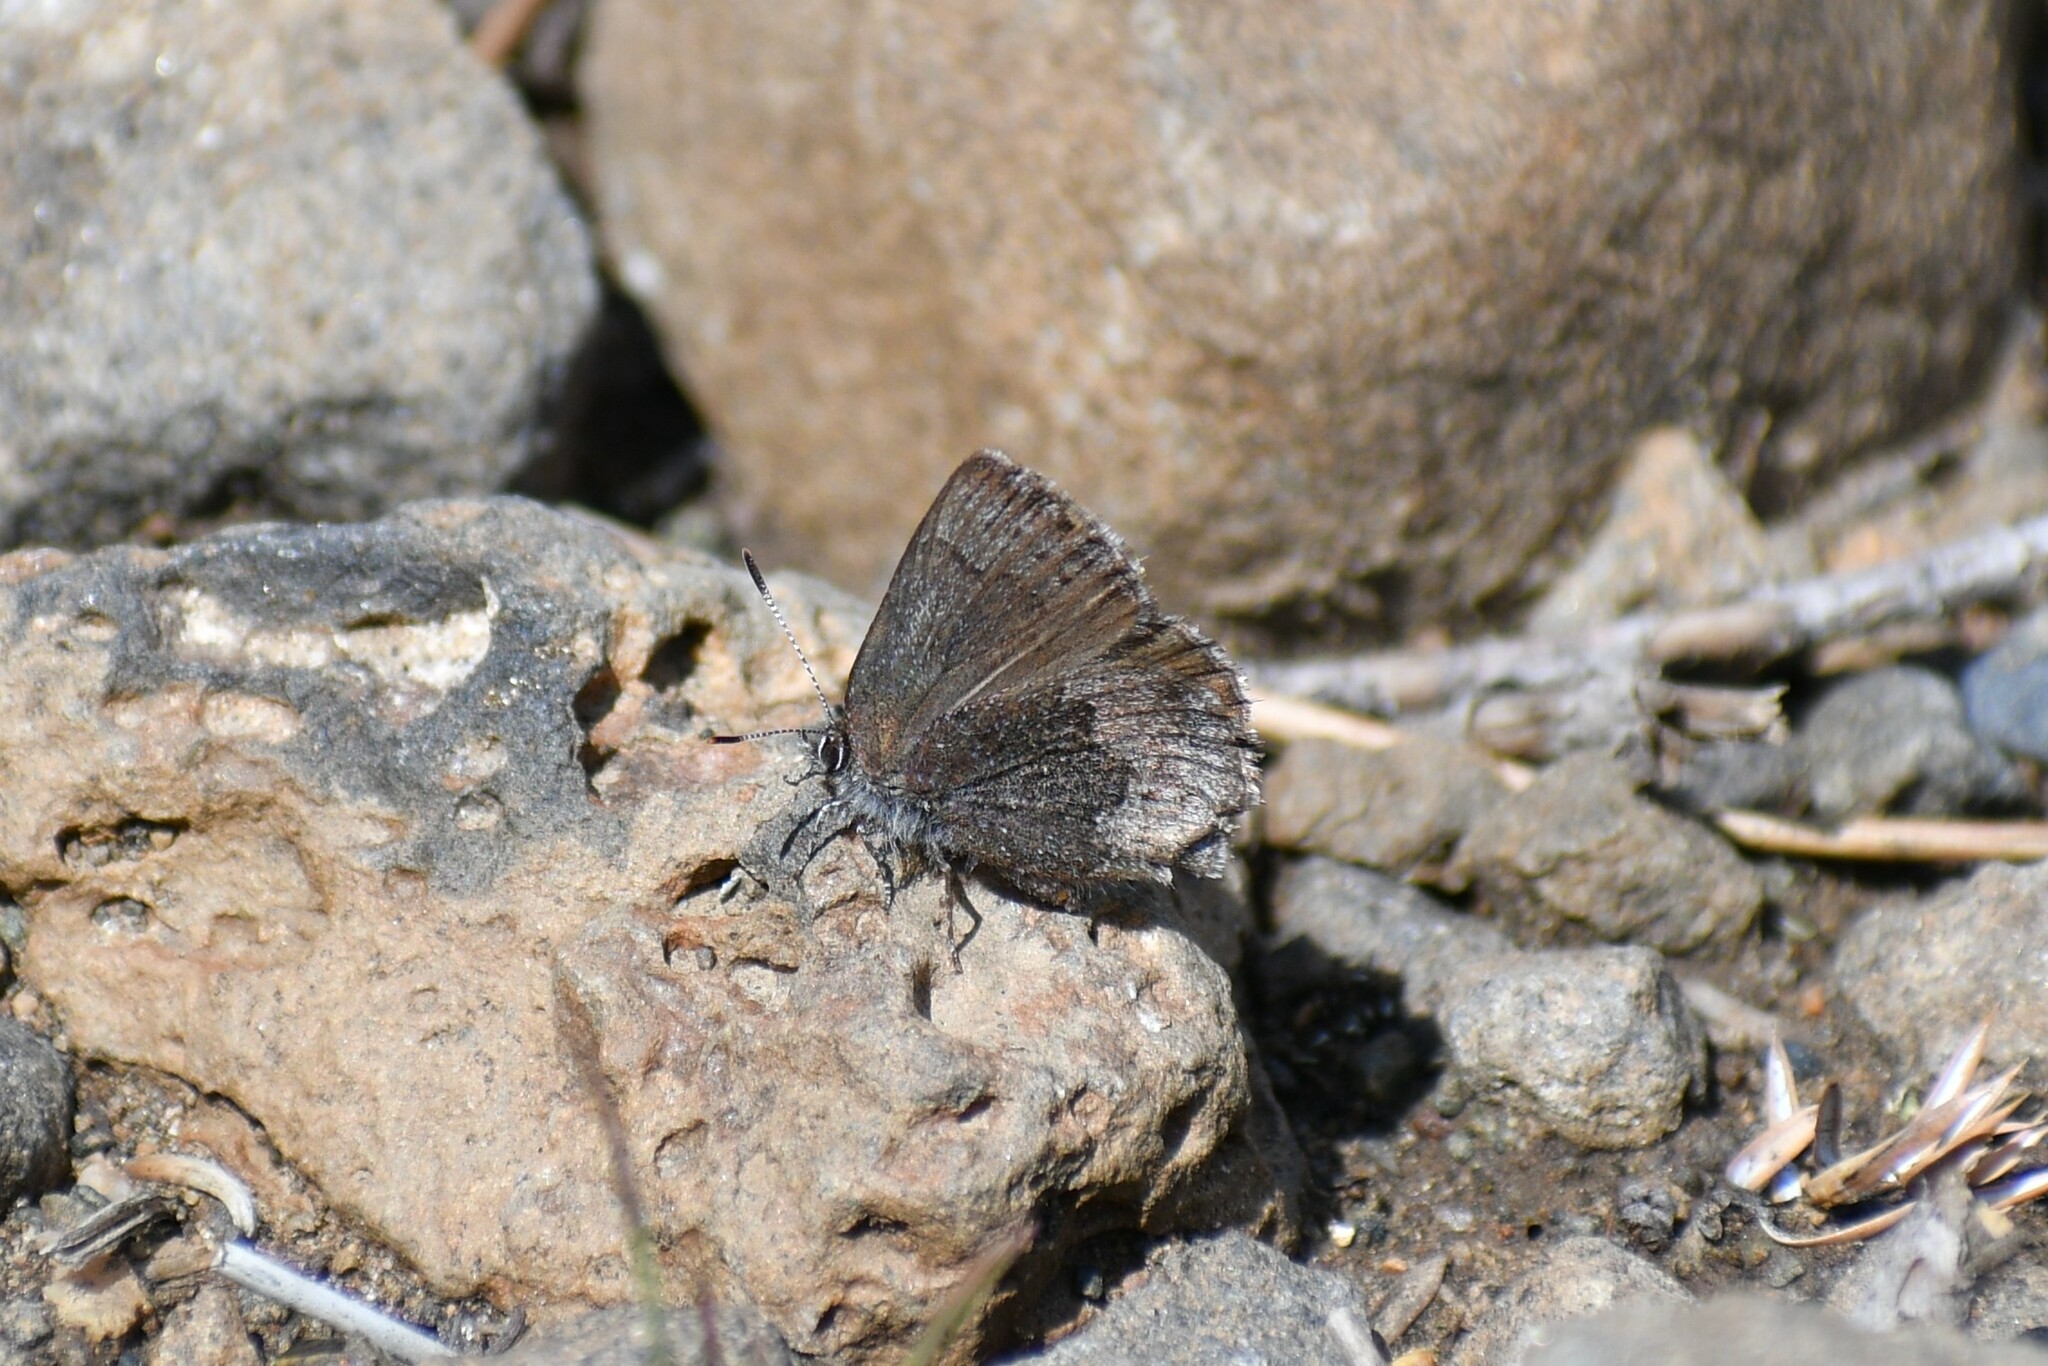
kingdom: Animalia
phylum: Arthropoda
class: Insecta
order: Lepidoptera
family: Lycaenidae
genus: Callophrys
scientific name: Callophrys polios
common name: Hoary elfin
